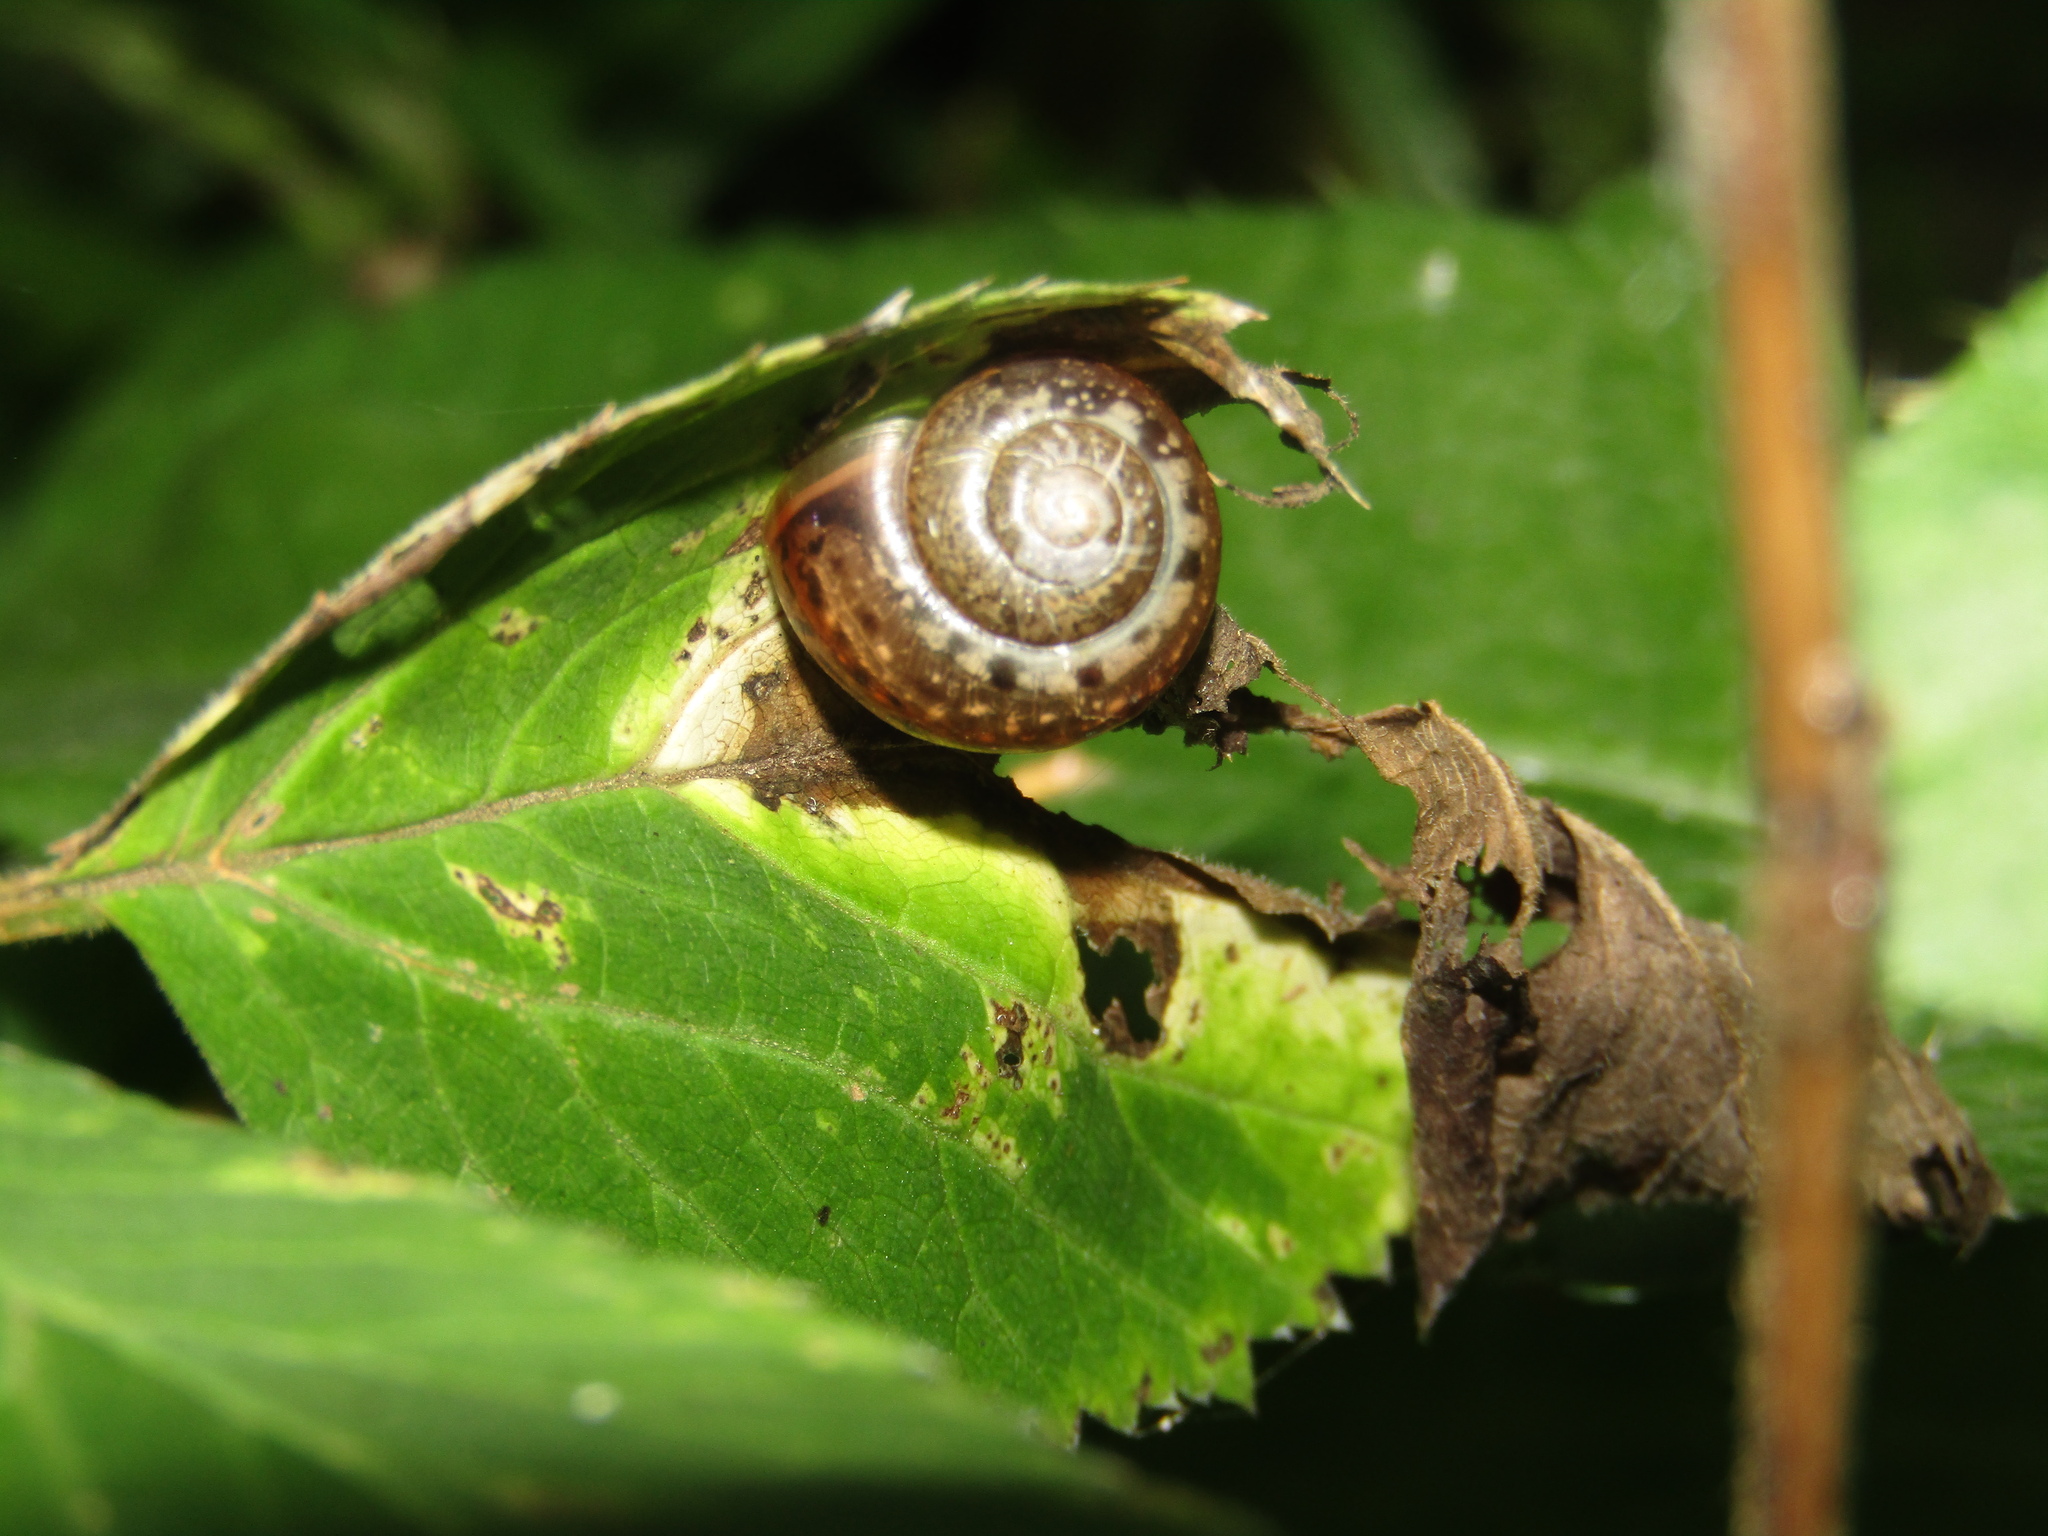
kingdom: Animalia
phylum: Mollusca
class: Gastropoda
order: Stylommatophora
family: Camaenidae
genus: Fruticicola
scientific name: Fruticicola fruticum
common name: Bush snail
